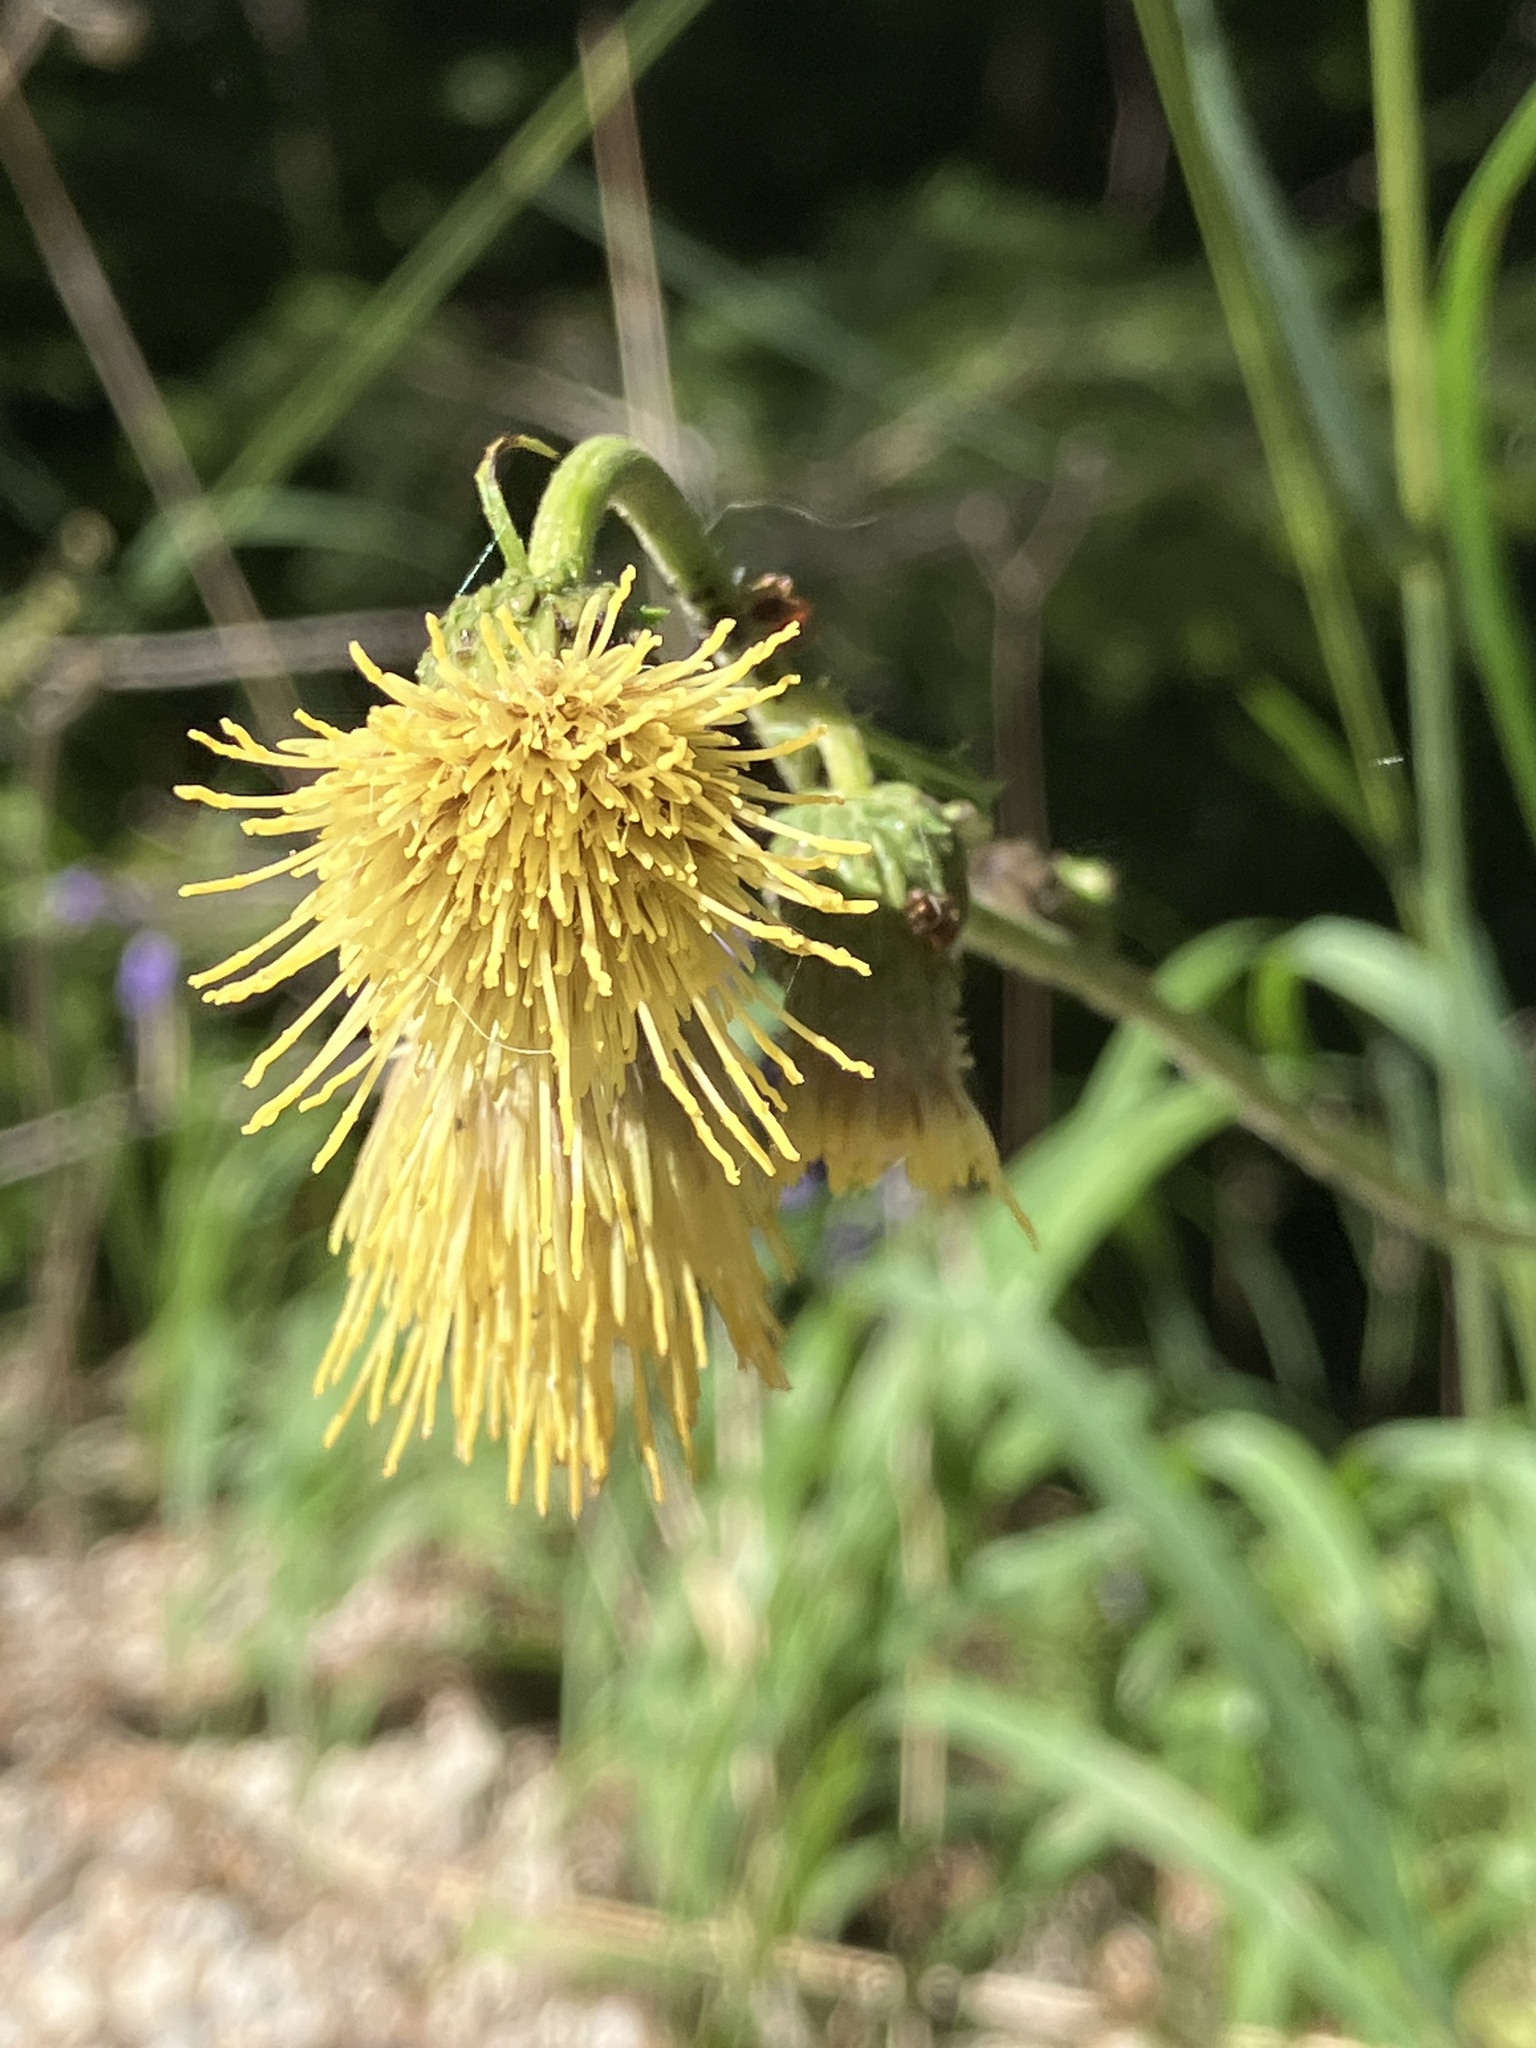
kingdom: Plantae
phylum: Tracheophyta
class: Magnoliopsida
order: Asterales
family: Asteraceae
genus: Cirsium
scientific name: Cirsium erisithales
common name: Yellow thistle
